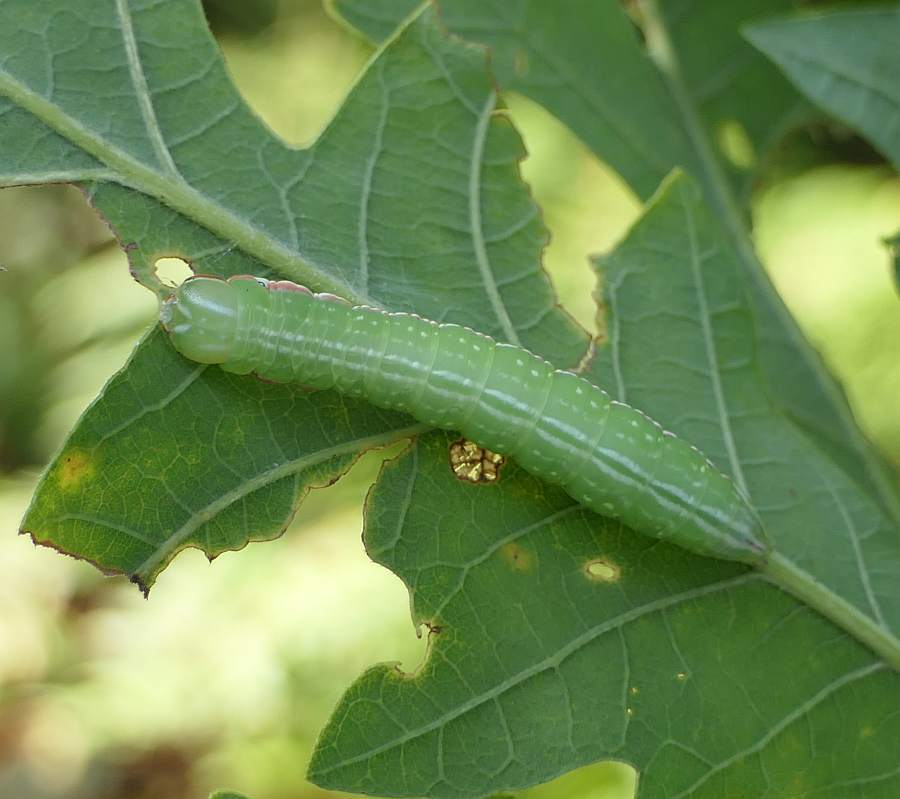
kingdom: Animalia
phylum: Arthropoda
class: Insecta
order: Lepidoptera
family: Notodontidae
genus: Peridea
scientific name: Peridea angulosa
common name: Angulose prominent
